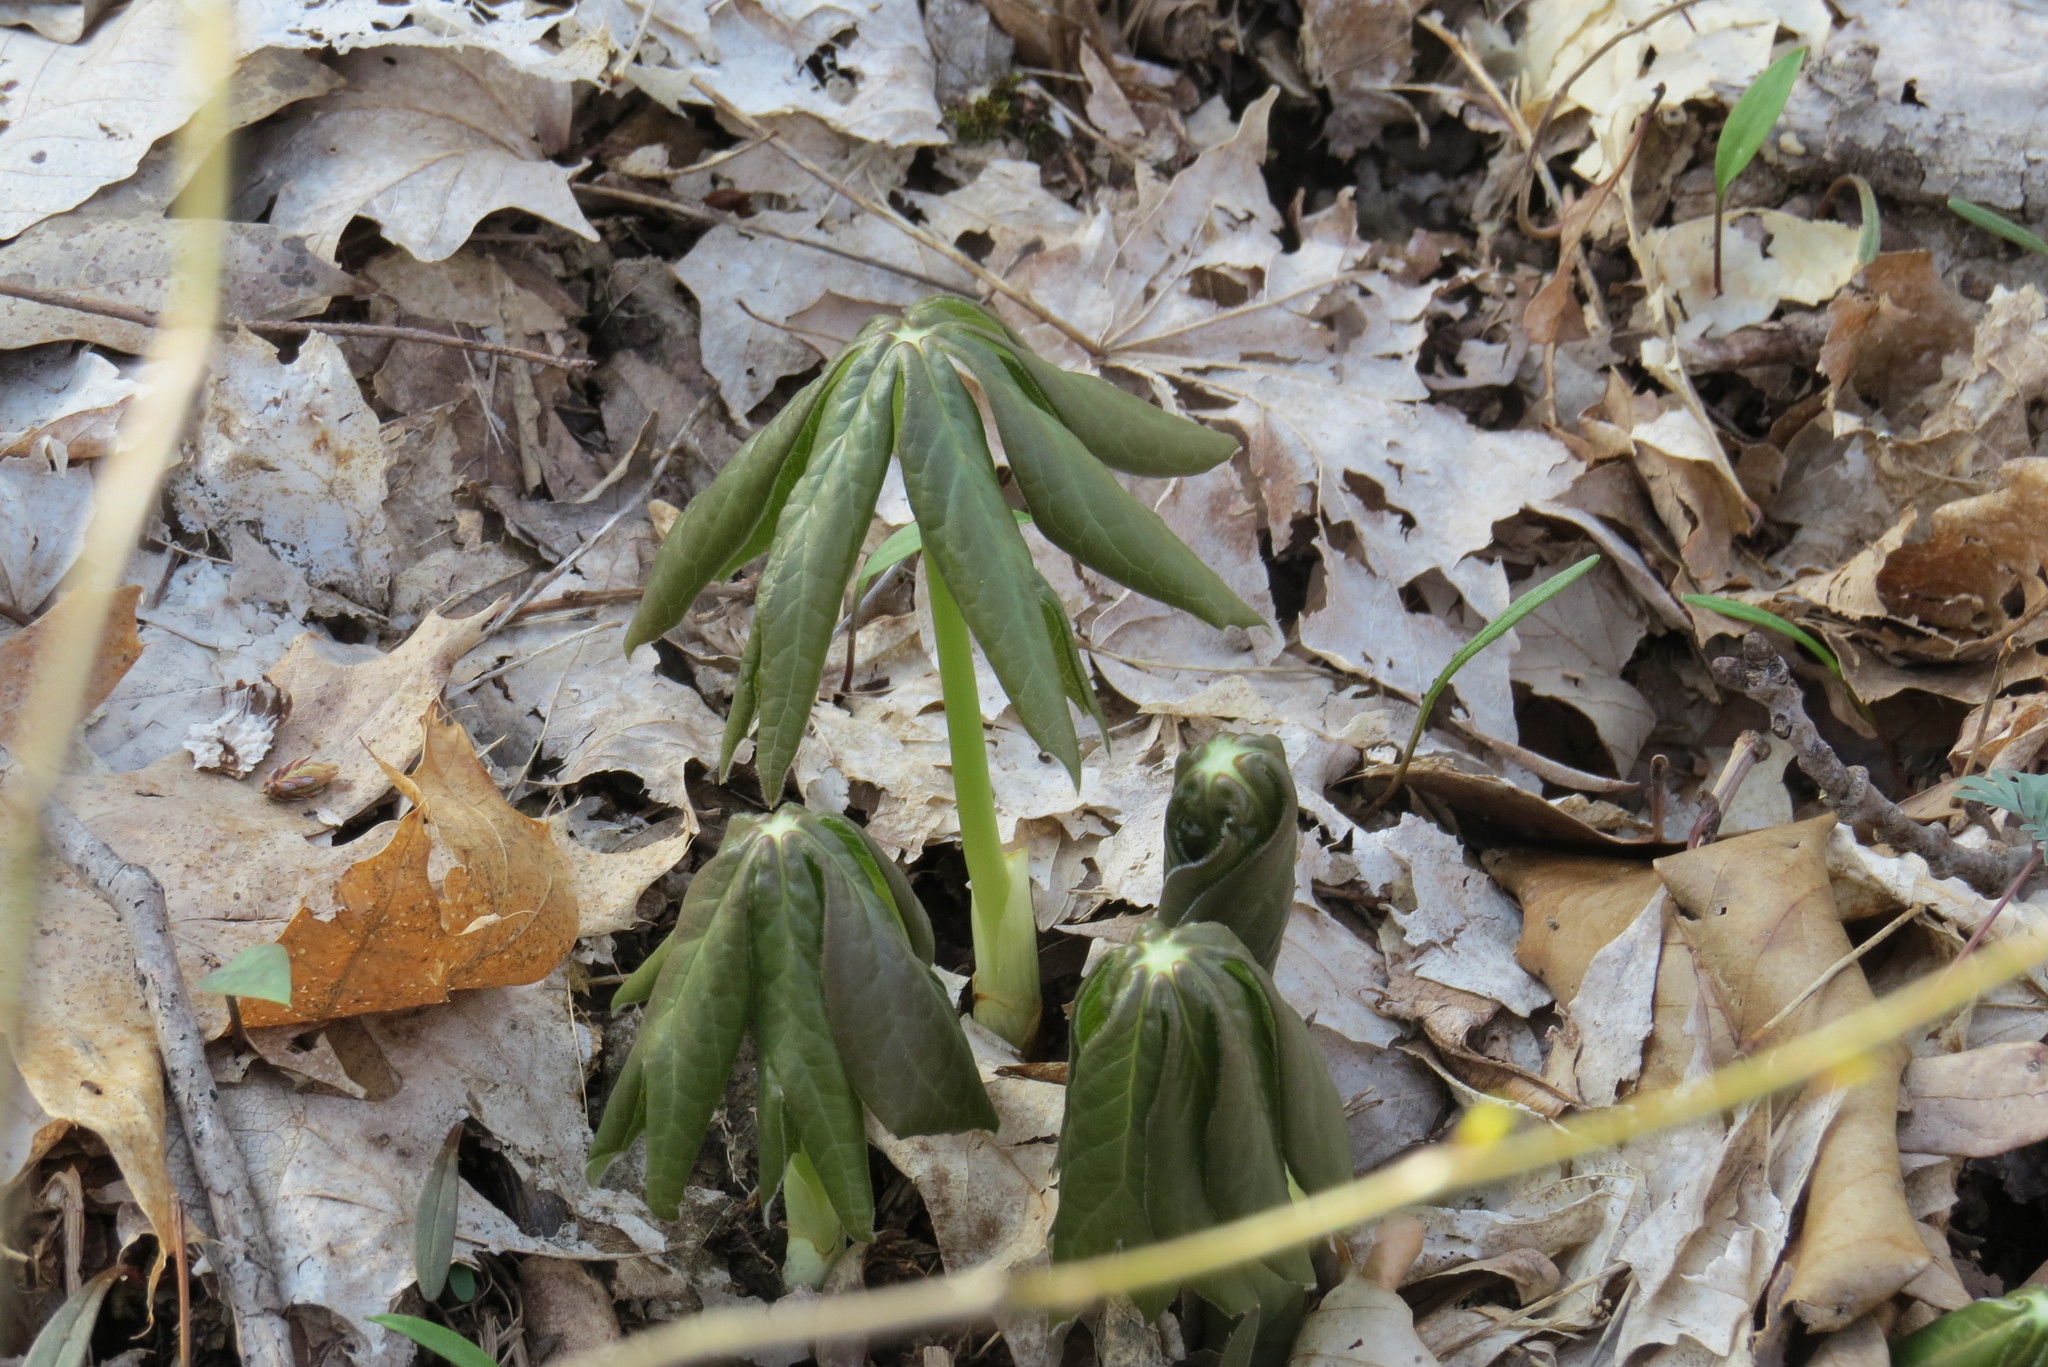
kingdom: Plantae
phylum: Tracheophyta
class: Magnoliopsida
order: Ranunculales
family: Berberidaceae
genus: Podophyllum
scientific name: Podophyllum peltatum
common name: Wild mandrake
